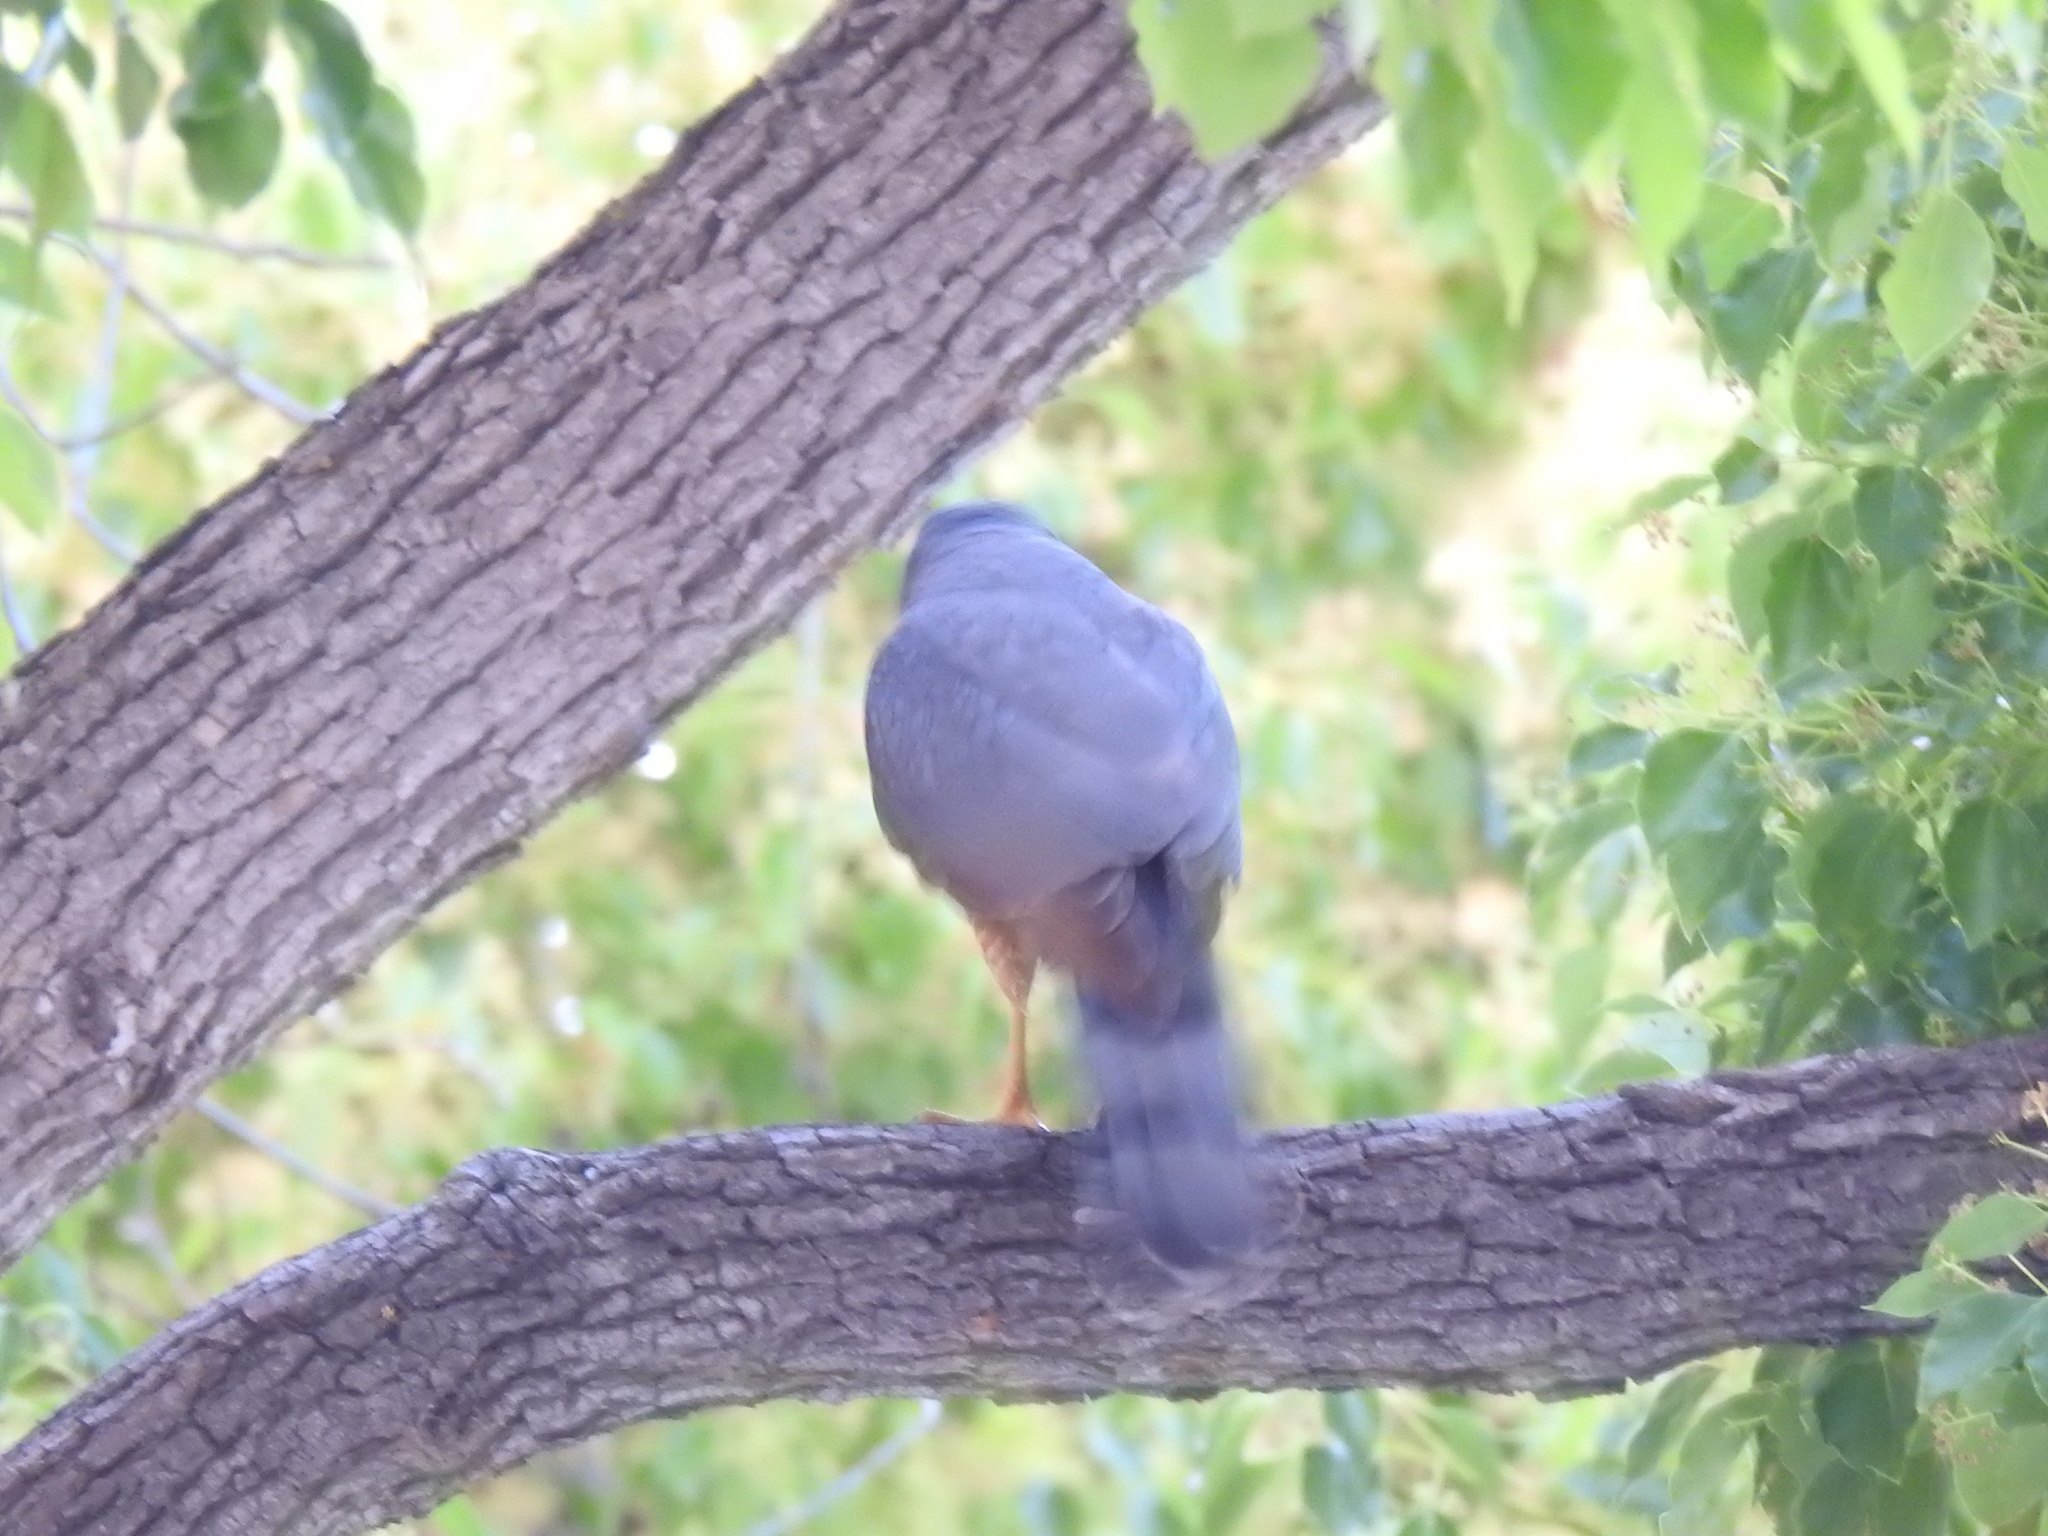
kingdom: Animalia
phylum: Chordata
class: Aves
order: Accipitriformes
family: Accipitridae
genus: Accipiter
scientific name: Accipiter cooperii
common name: Cooper's hawk
